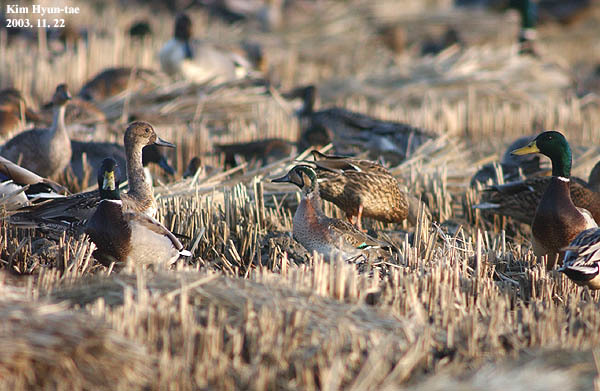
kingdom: Animalia
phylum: Chordata
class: Aves
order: Anseriformes
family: Anatidae
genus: Sibirionetta
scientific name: Sibirionetta formosa
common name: Baikal teal
